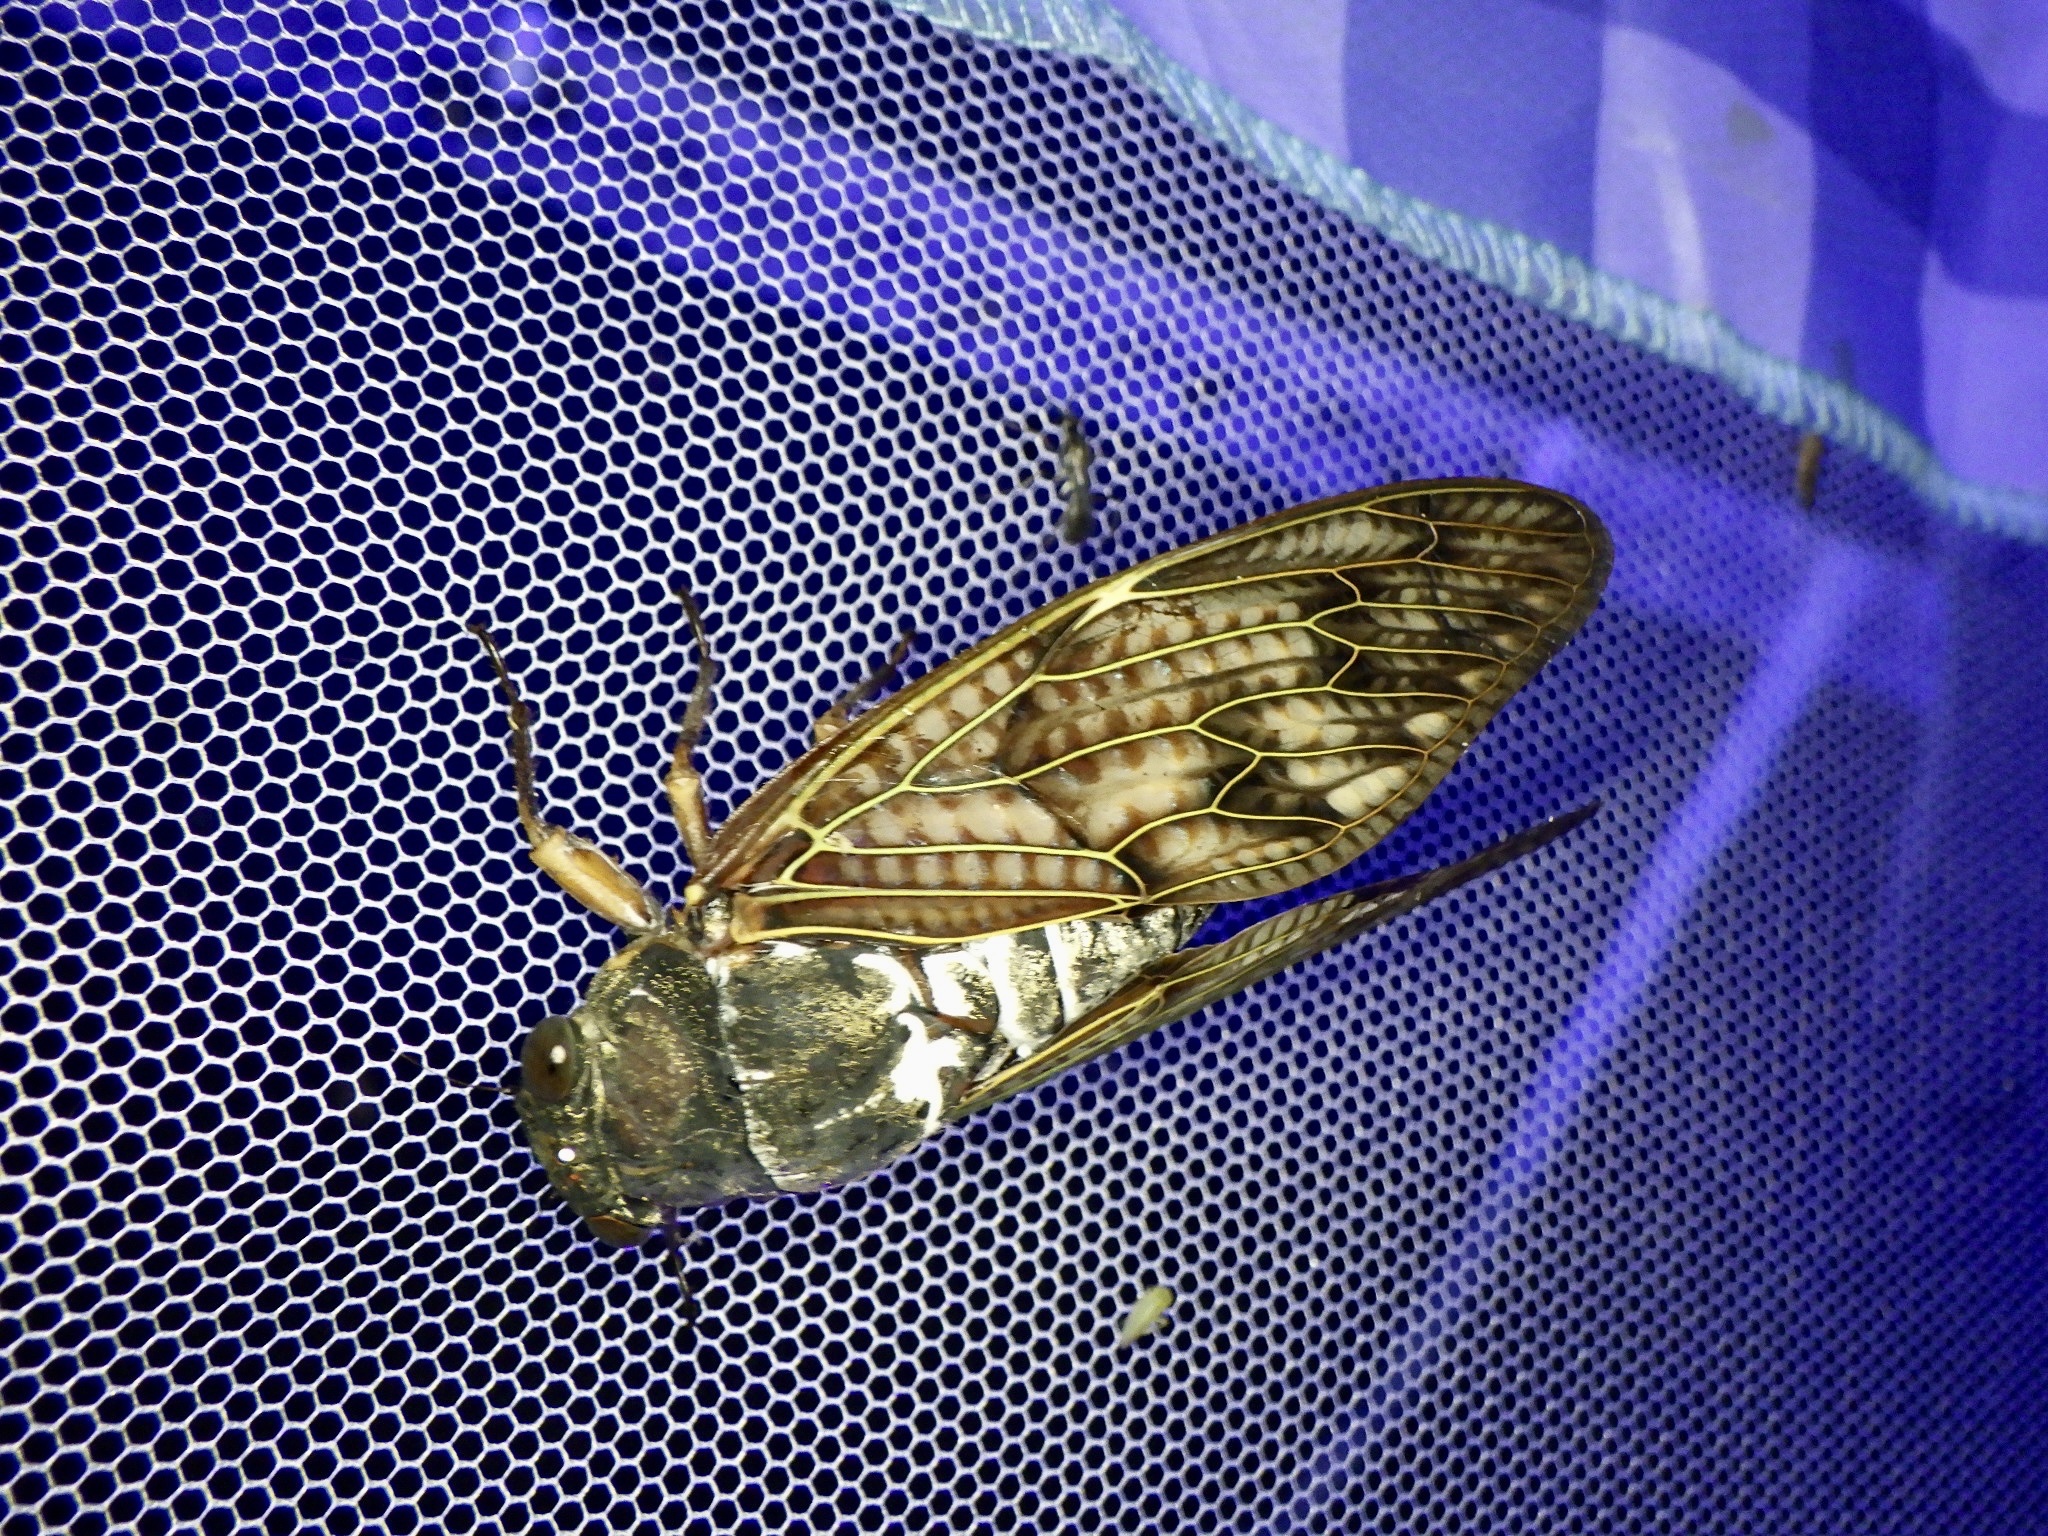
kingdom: Animalia
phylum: Arthropoda
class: Insecta
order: Hemiptera
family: Cicadidae
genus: Graptopsaltria
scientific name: Graptopsaltria nigrofuscata
